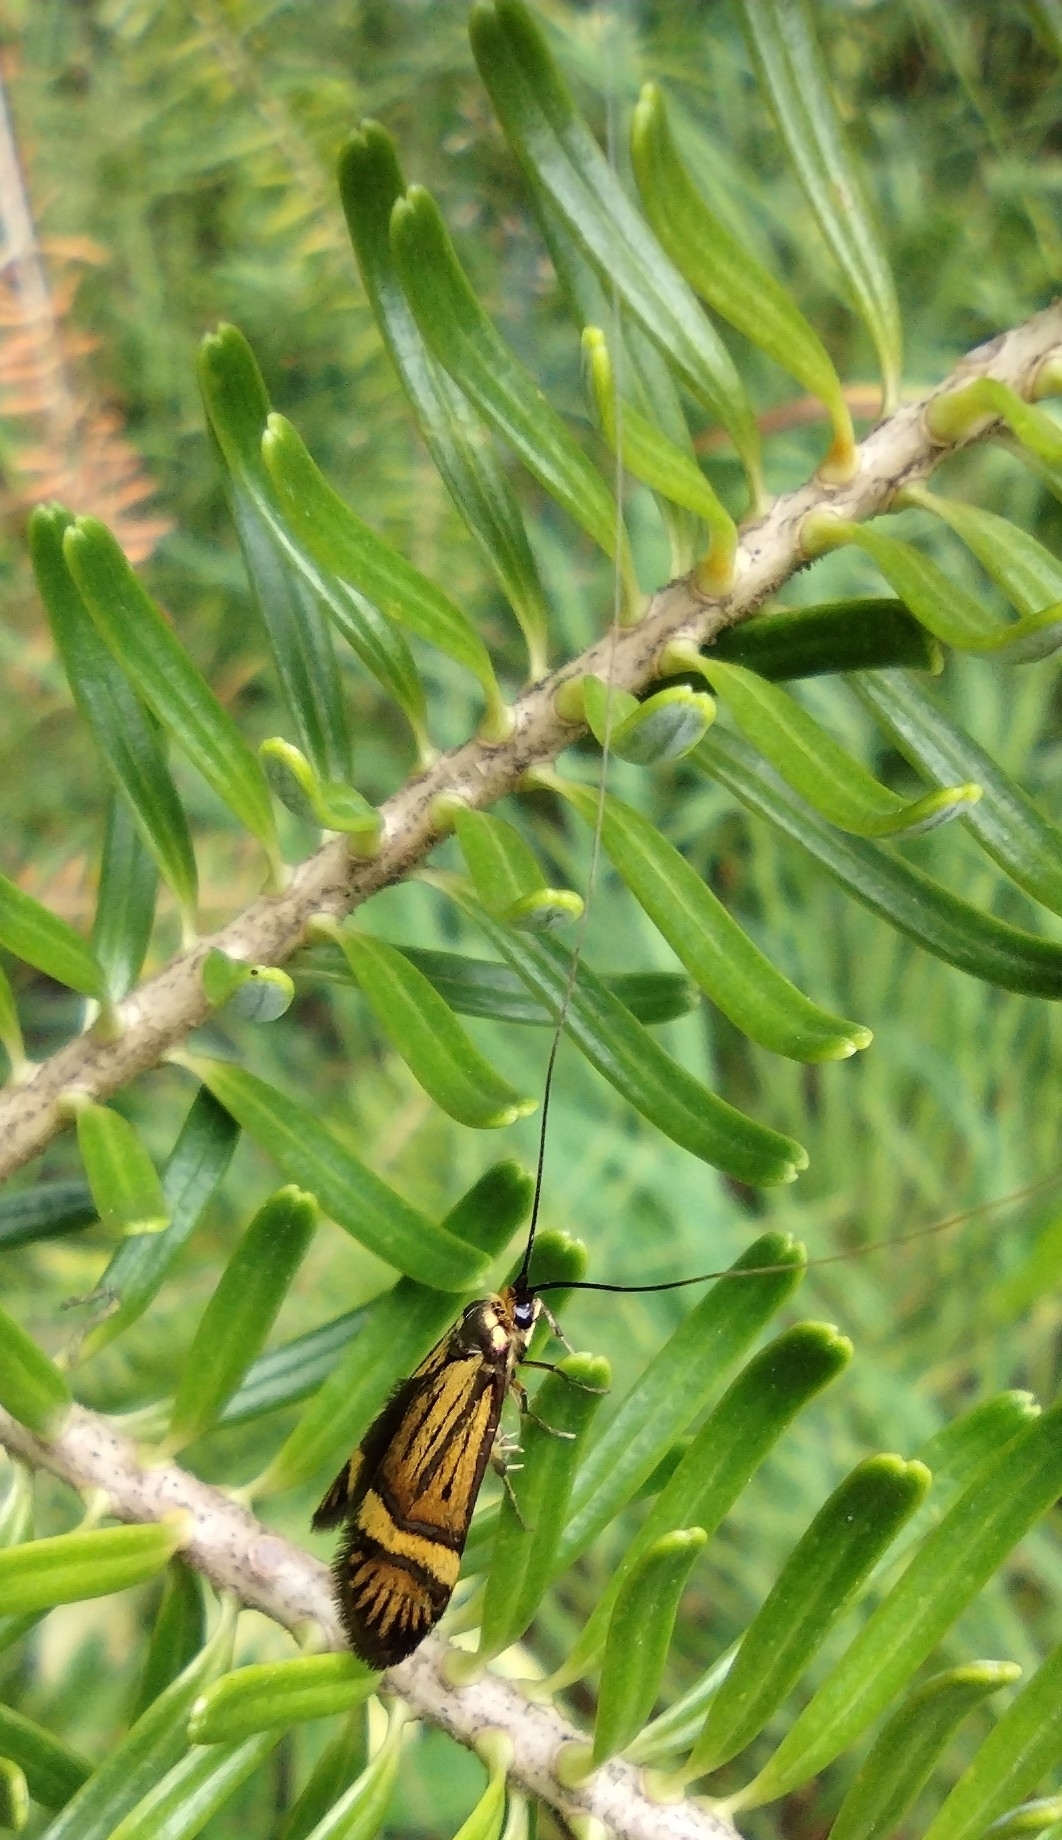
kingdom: Animalia
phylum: Arthropoda
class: Insecta
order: Lepidoptera
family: Adelidae
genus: Nemophora
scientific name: Nemophora degeerella
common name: Yellow-barred long-horn
